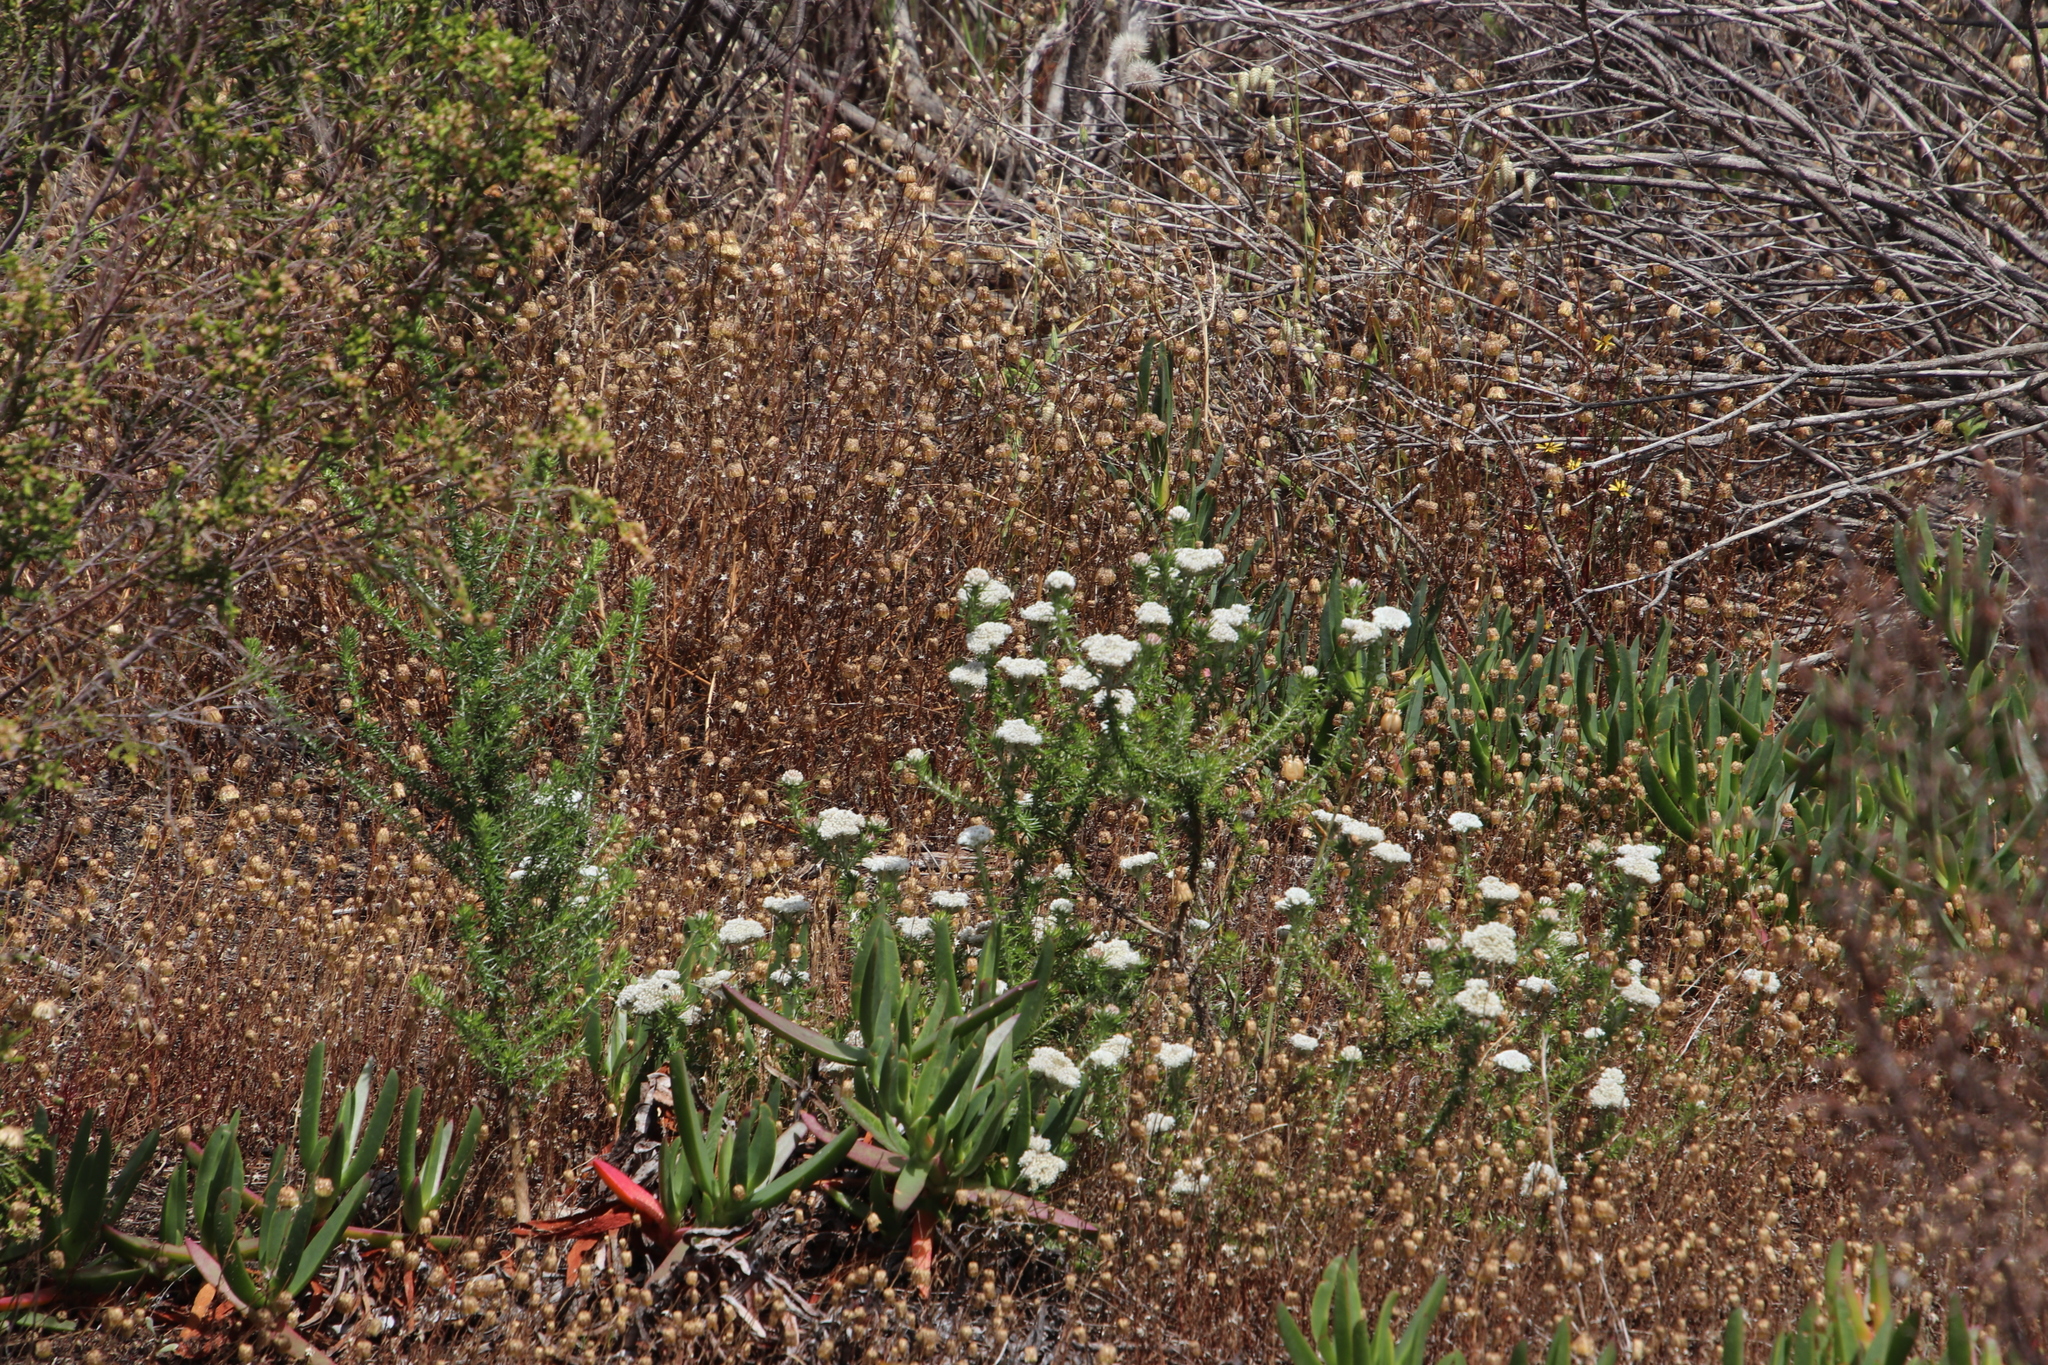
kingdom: Plantae
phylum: Tracheophyta
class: Magnoliopsida
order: Asterales
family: Asteraceae
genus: Ursinia
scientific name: Ursinia anthemoides
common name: Ursinia
